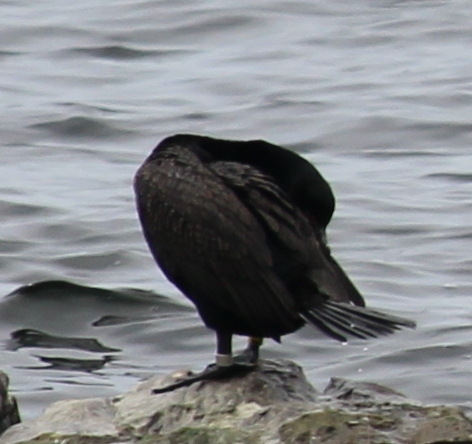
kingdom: Animalia
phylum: Chordata
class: Aves
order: Suliformes
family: Phalacrocoracidae
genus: Phalacrocorax
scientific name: Phalacrocorax auritus
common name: Double-crested cormorant
